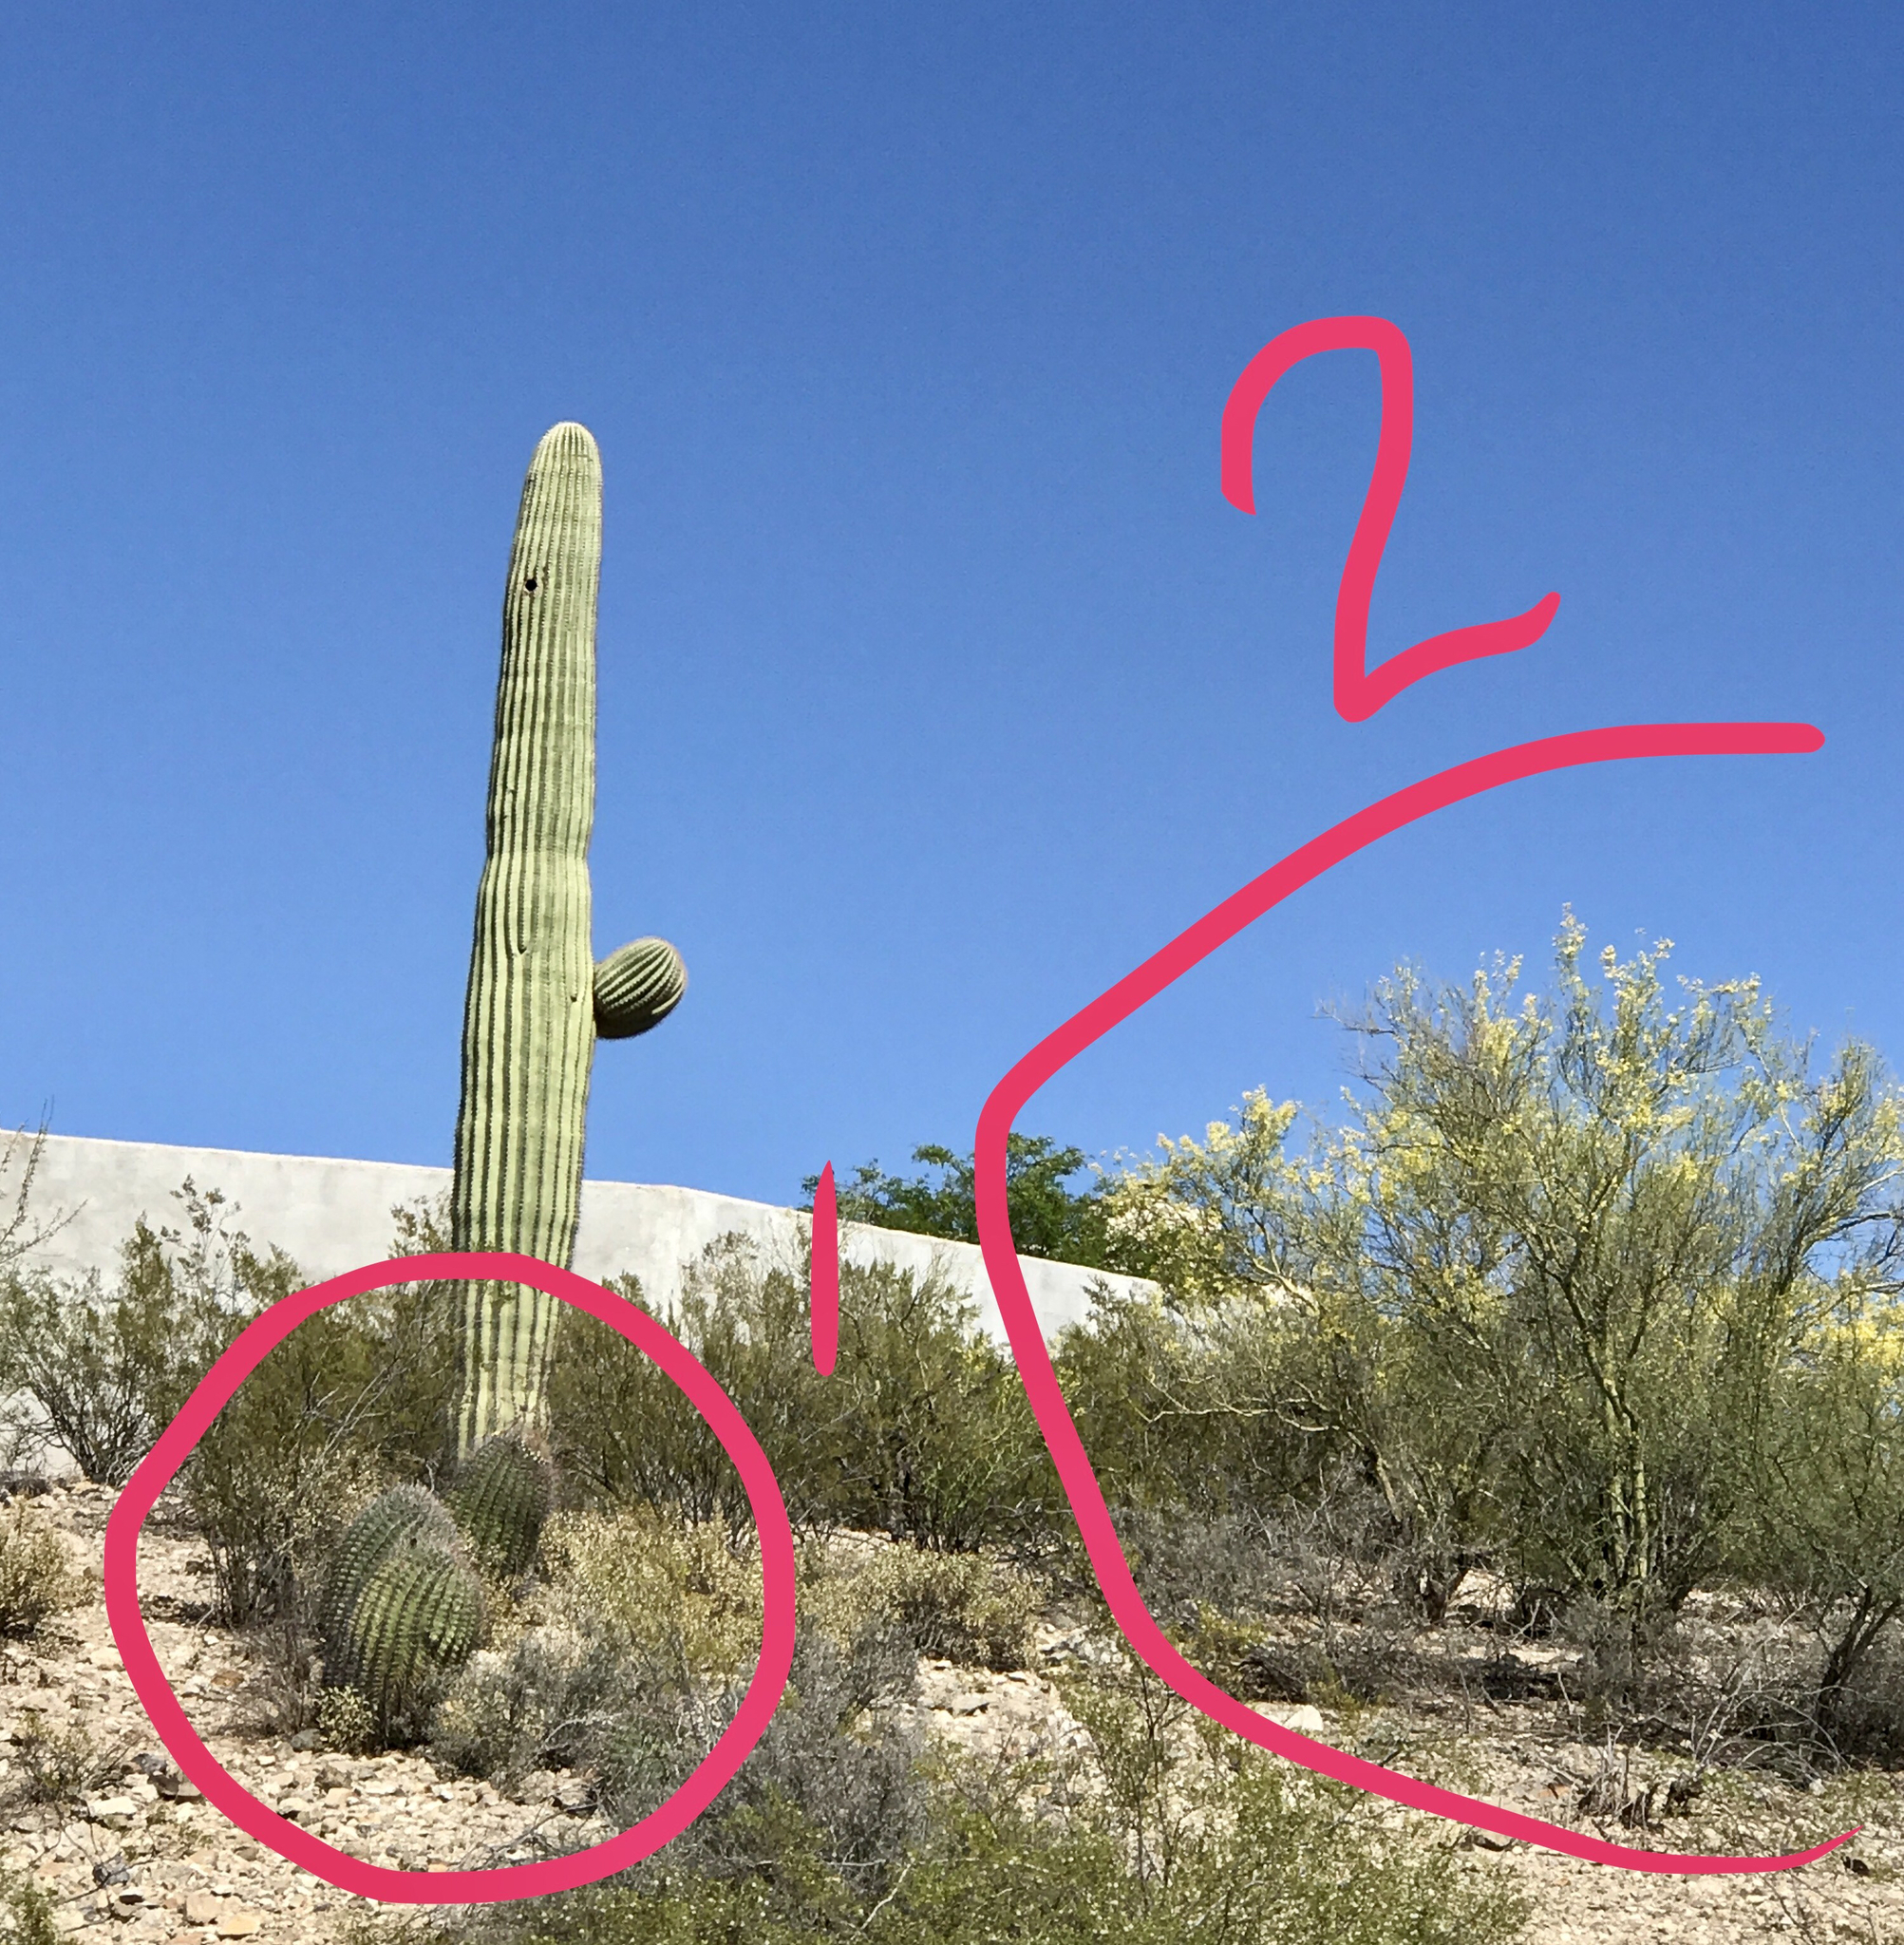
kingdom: Plantae
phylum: Tracheophyta
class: Magnoliopsida
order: Fabales
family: Fabaceae
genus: Parkinsonia
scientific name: Parkinsonia microphylla
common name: Yellow paloverde
